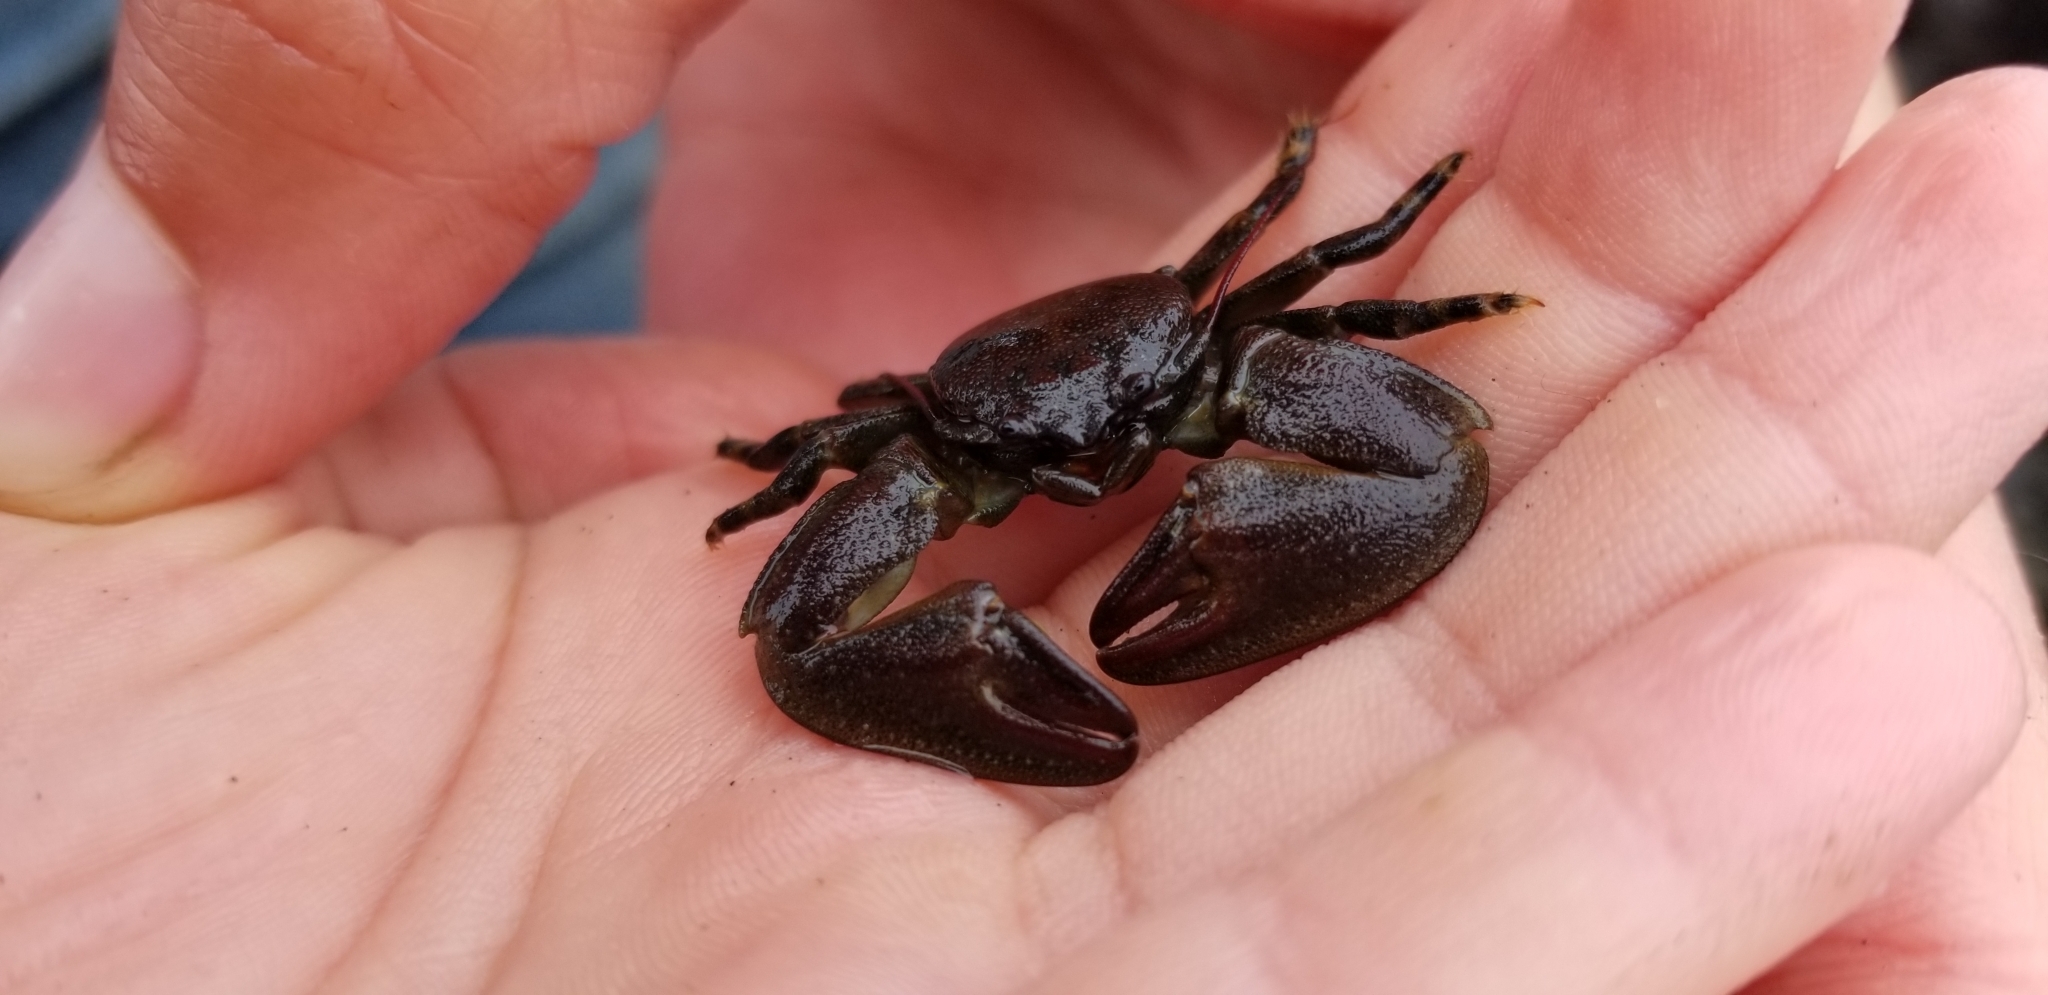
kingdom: Animalia
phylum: Arthropoda
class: Malacostraca
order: Decapoda
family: Porcellanidae
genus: Petrolisthes
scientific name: Petrolisthes cinctipes
